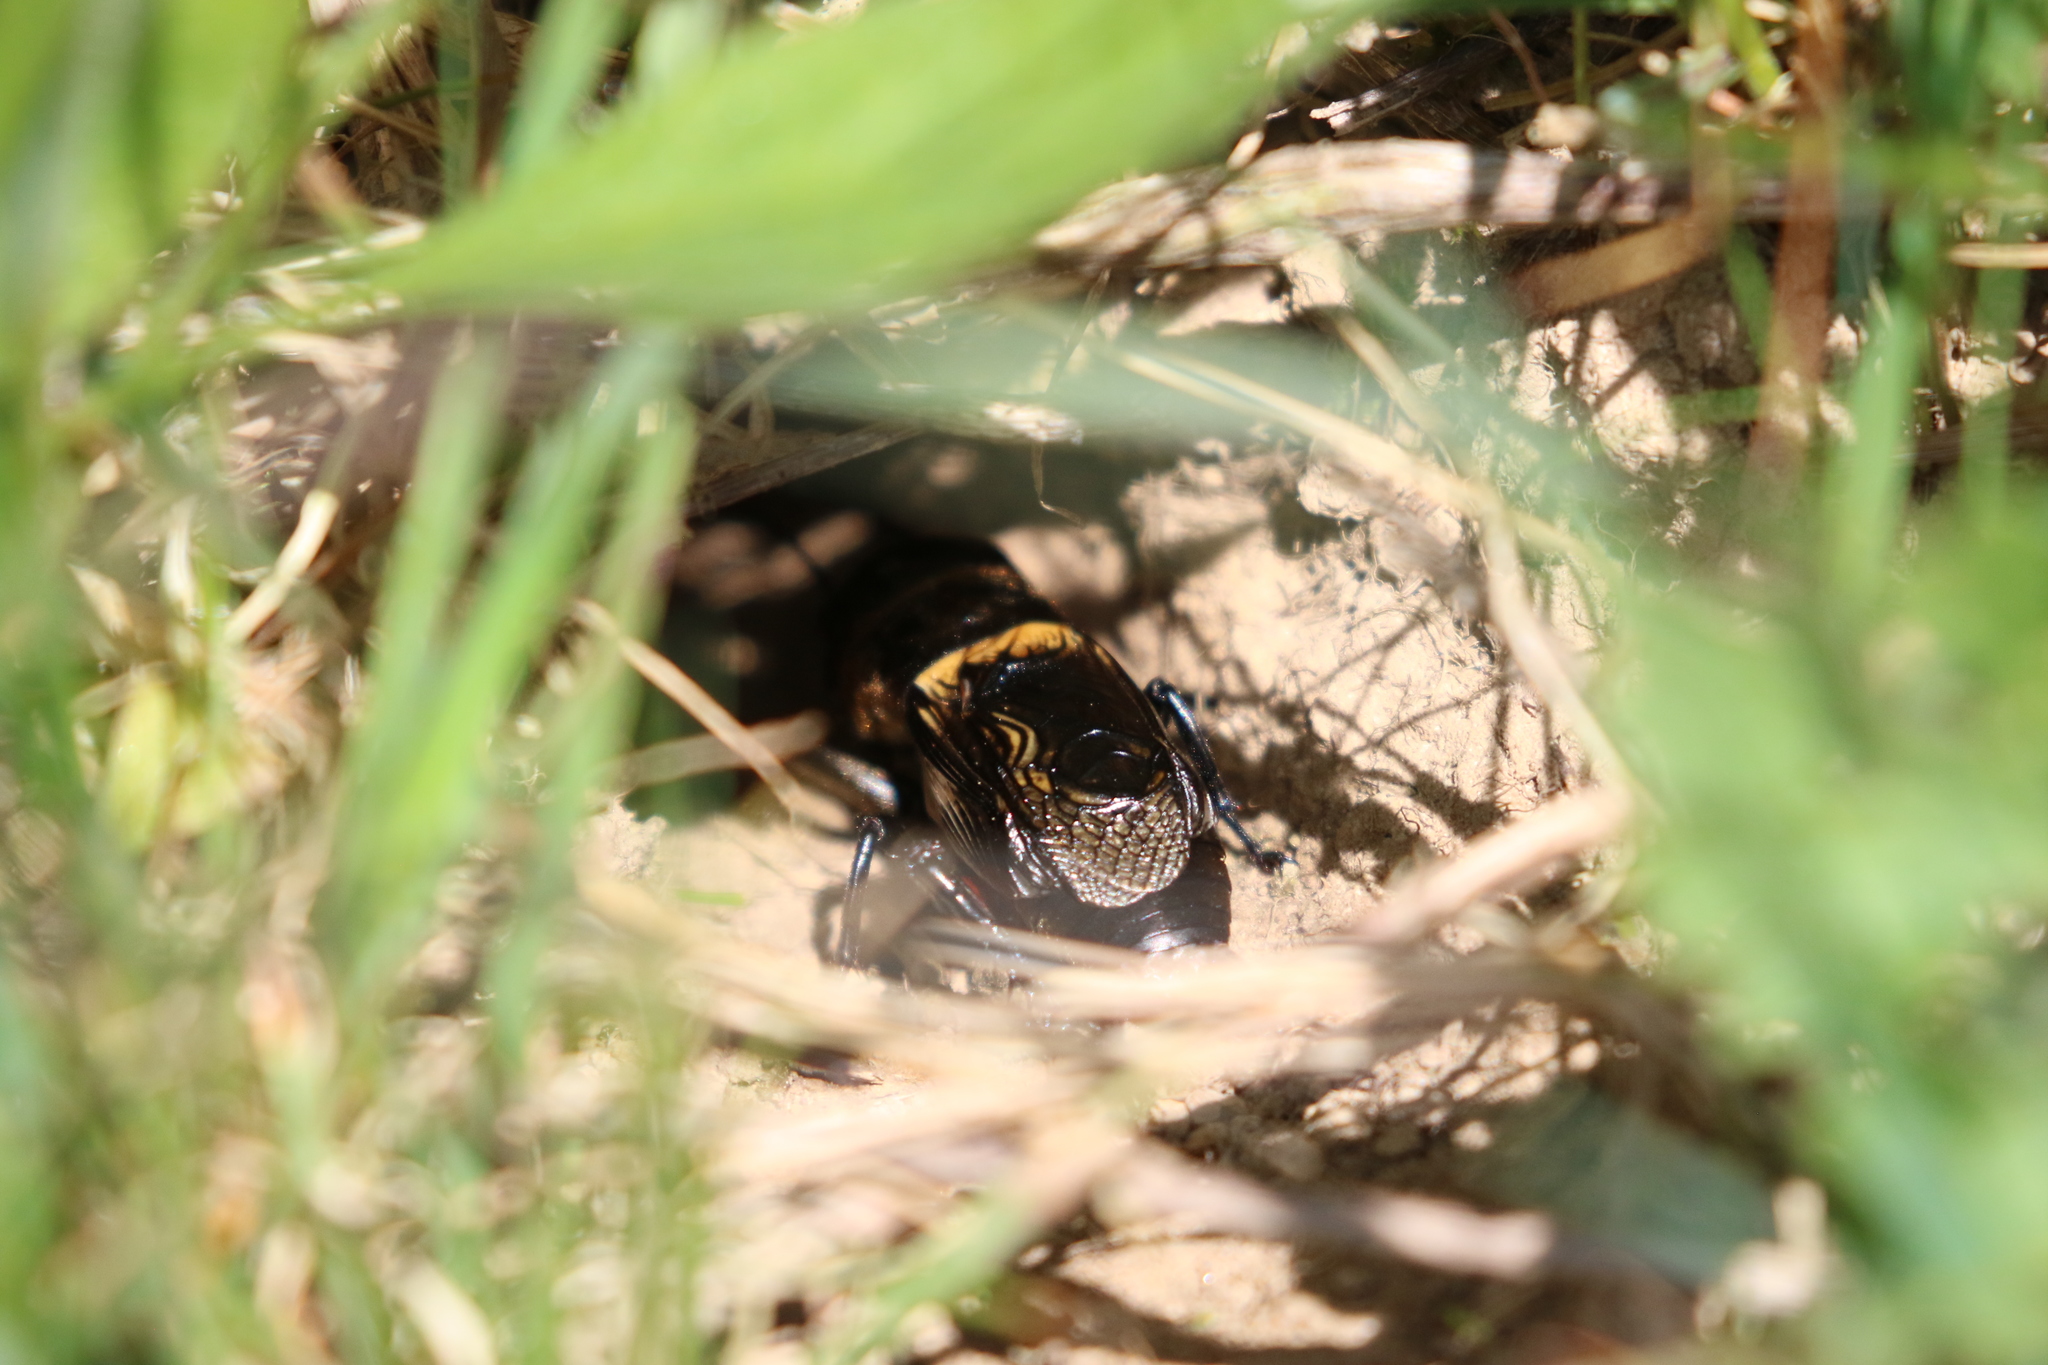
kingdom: Animalia
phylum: Arthropoda
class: Insecta
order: Orthoptera
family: Gryllidae
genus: Gryllus
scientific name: Gryllus campestris
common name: Field cricket
